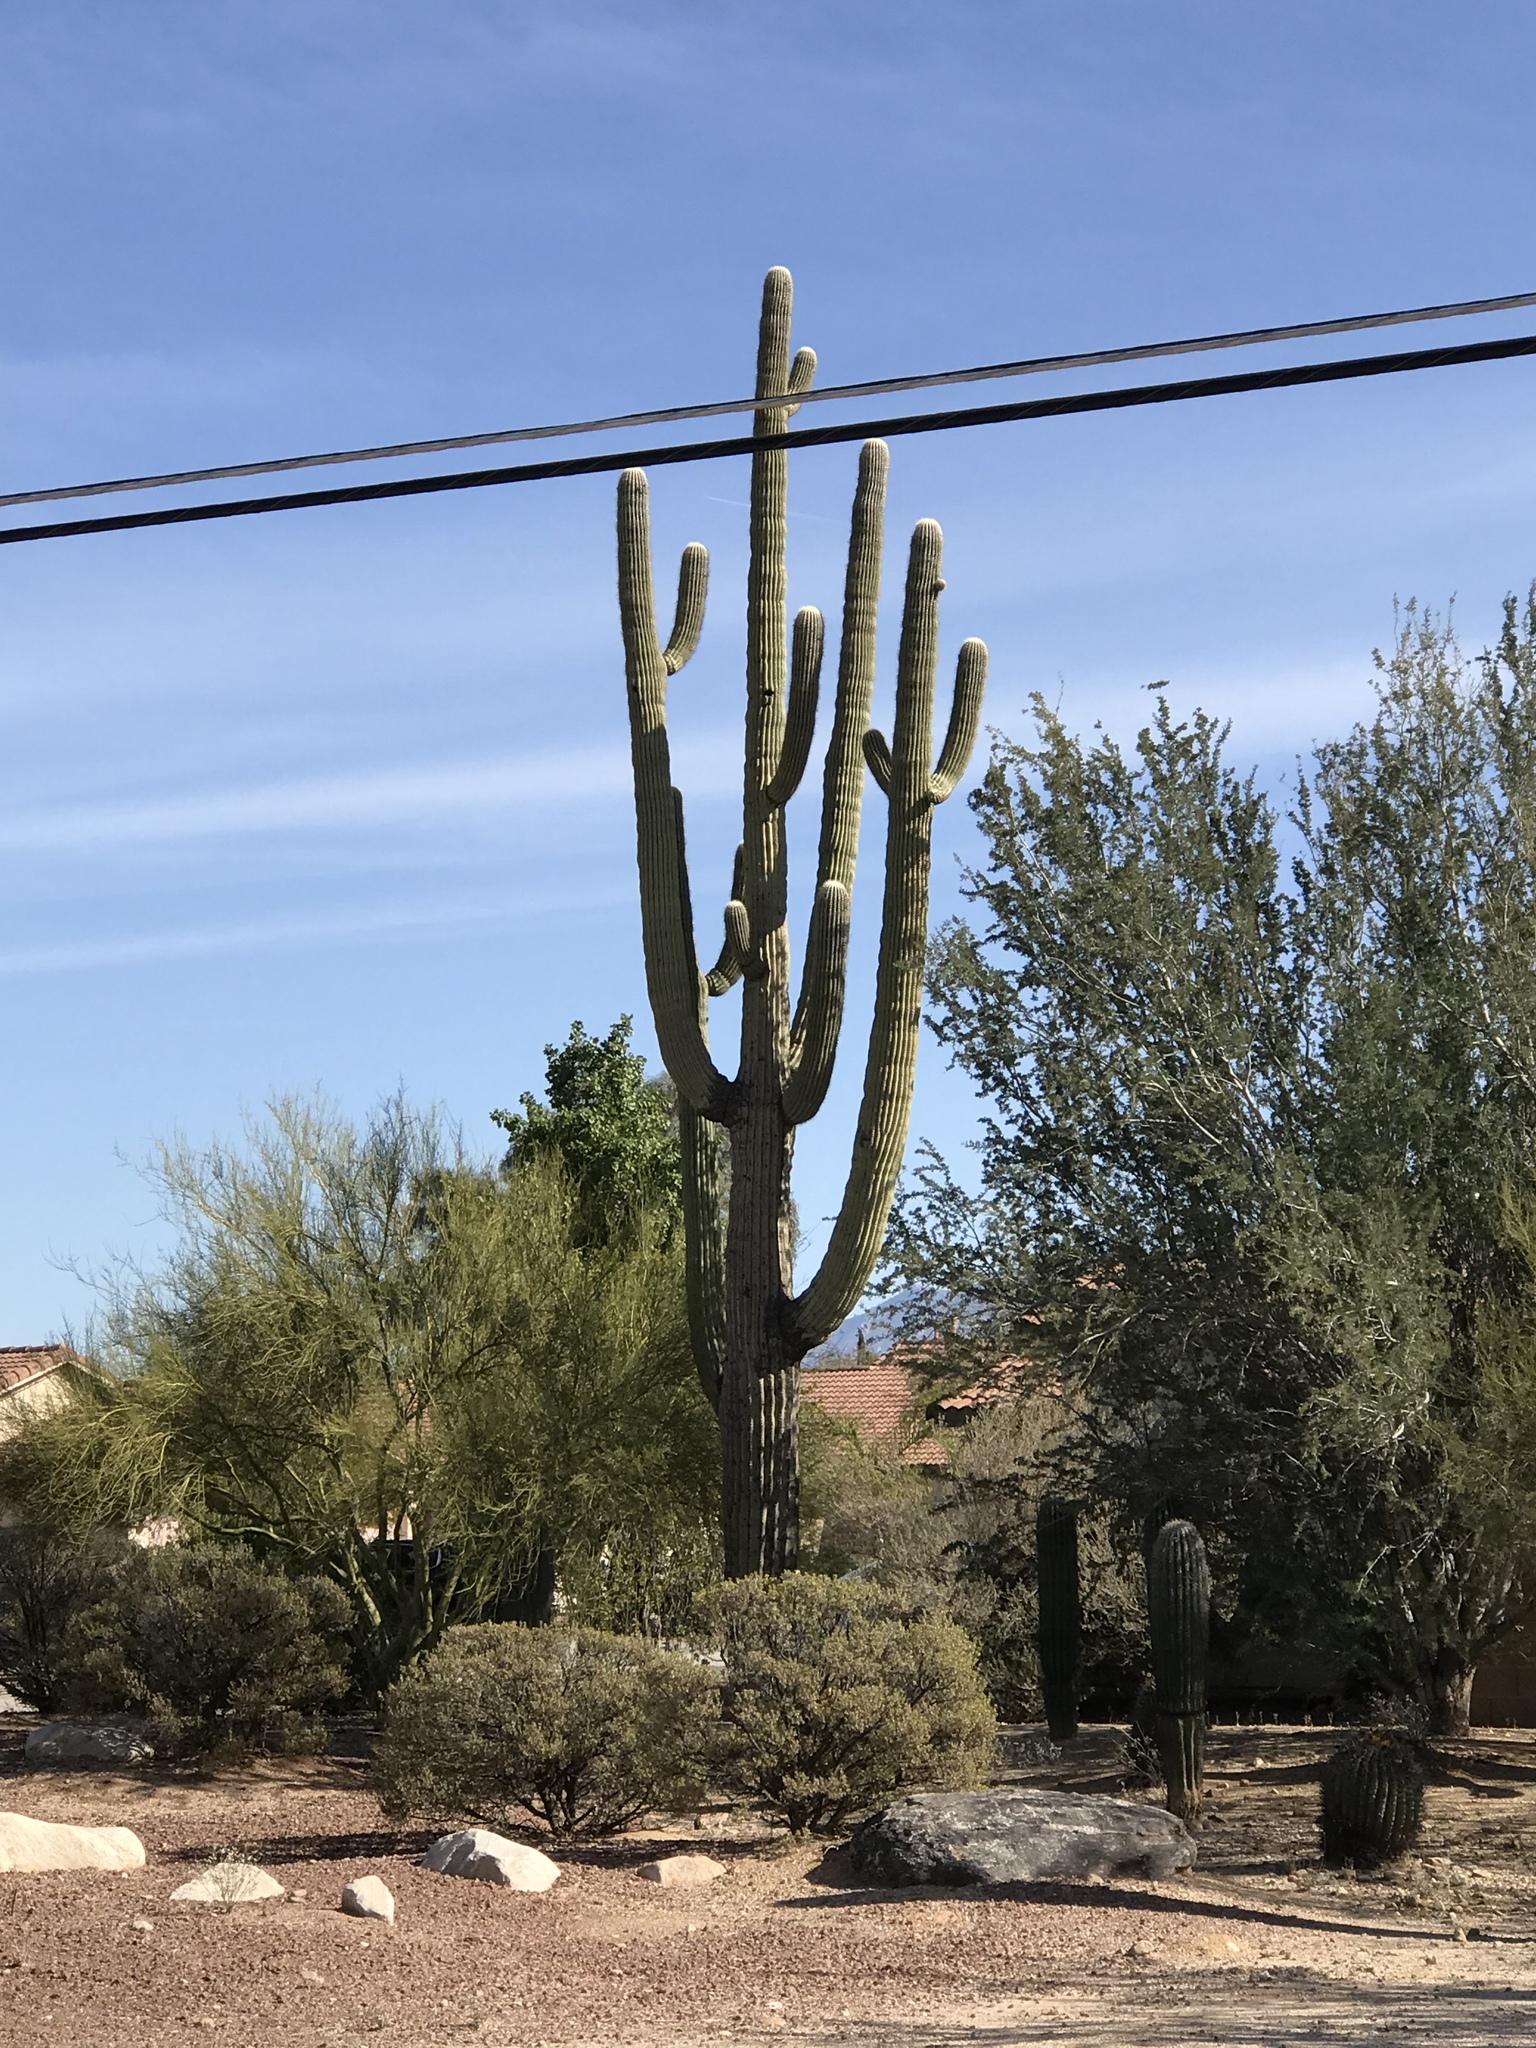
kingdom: Plantae
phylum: Tracheophyta
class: Magnoliopsida
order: Caryophyllales
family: Cactaceae
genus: Carnegiea
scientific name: Carnegiea gigantea
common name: Saguaro
